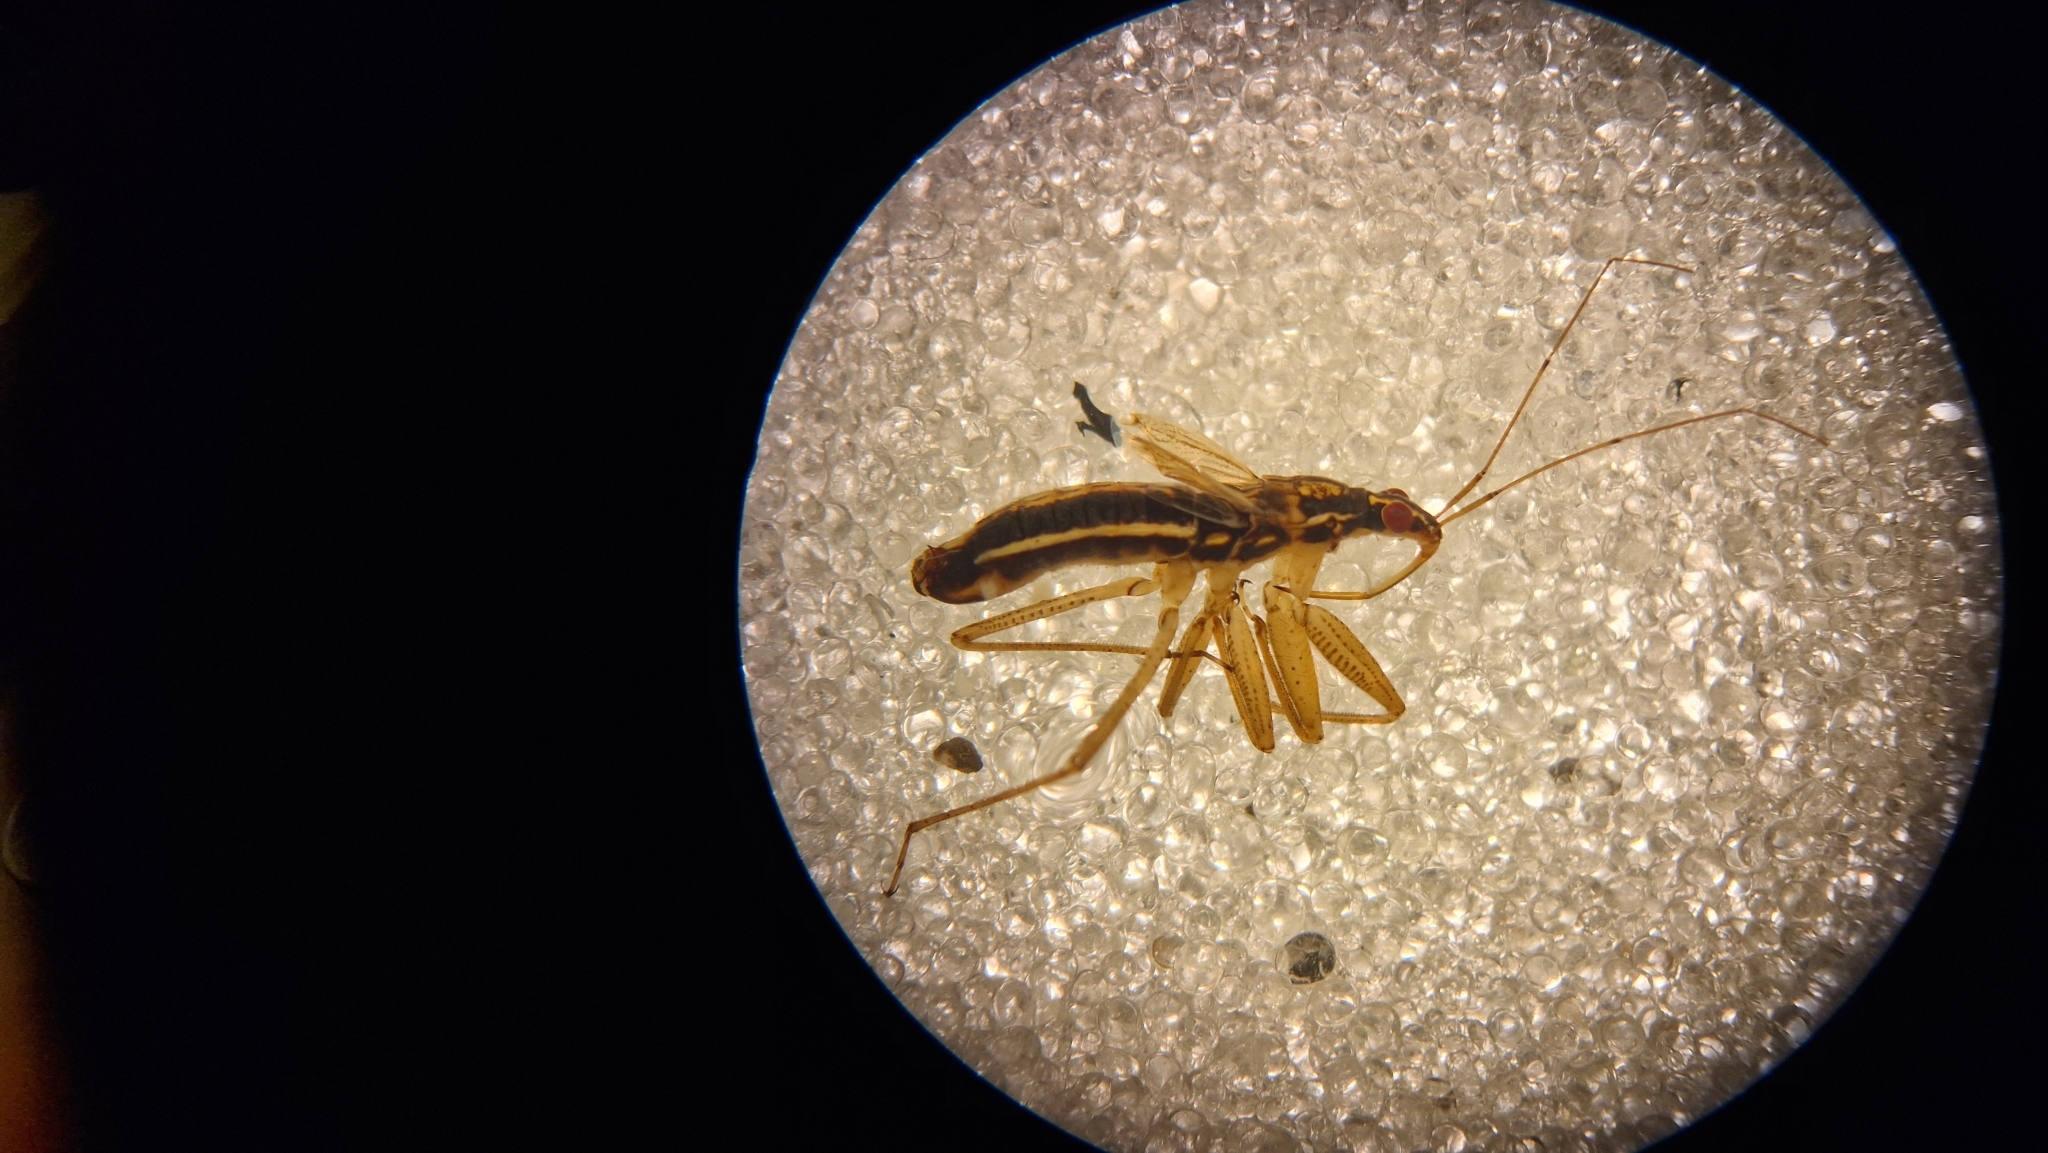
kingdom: Animalia
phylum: Arthropoda
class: Insecta
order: Hemiptera
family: Nabidae
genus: Nabis
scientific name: Nabis flavomarginatus
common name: Broad damselbug
